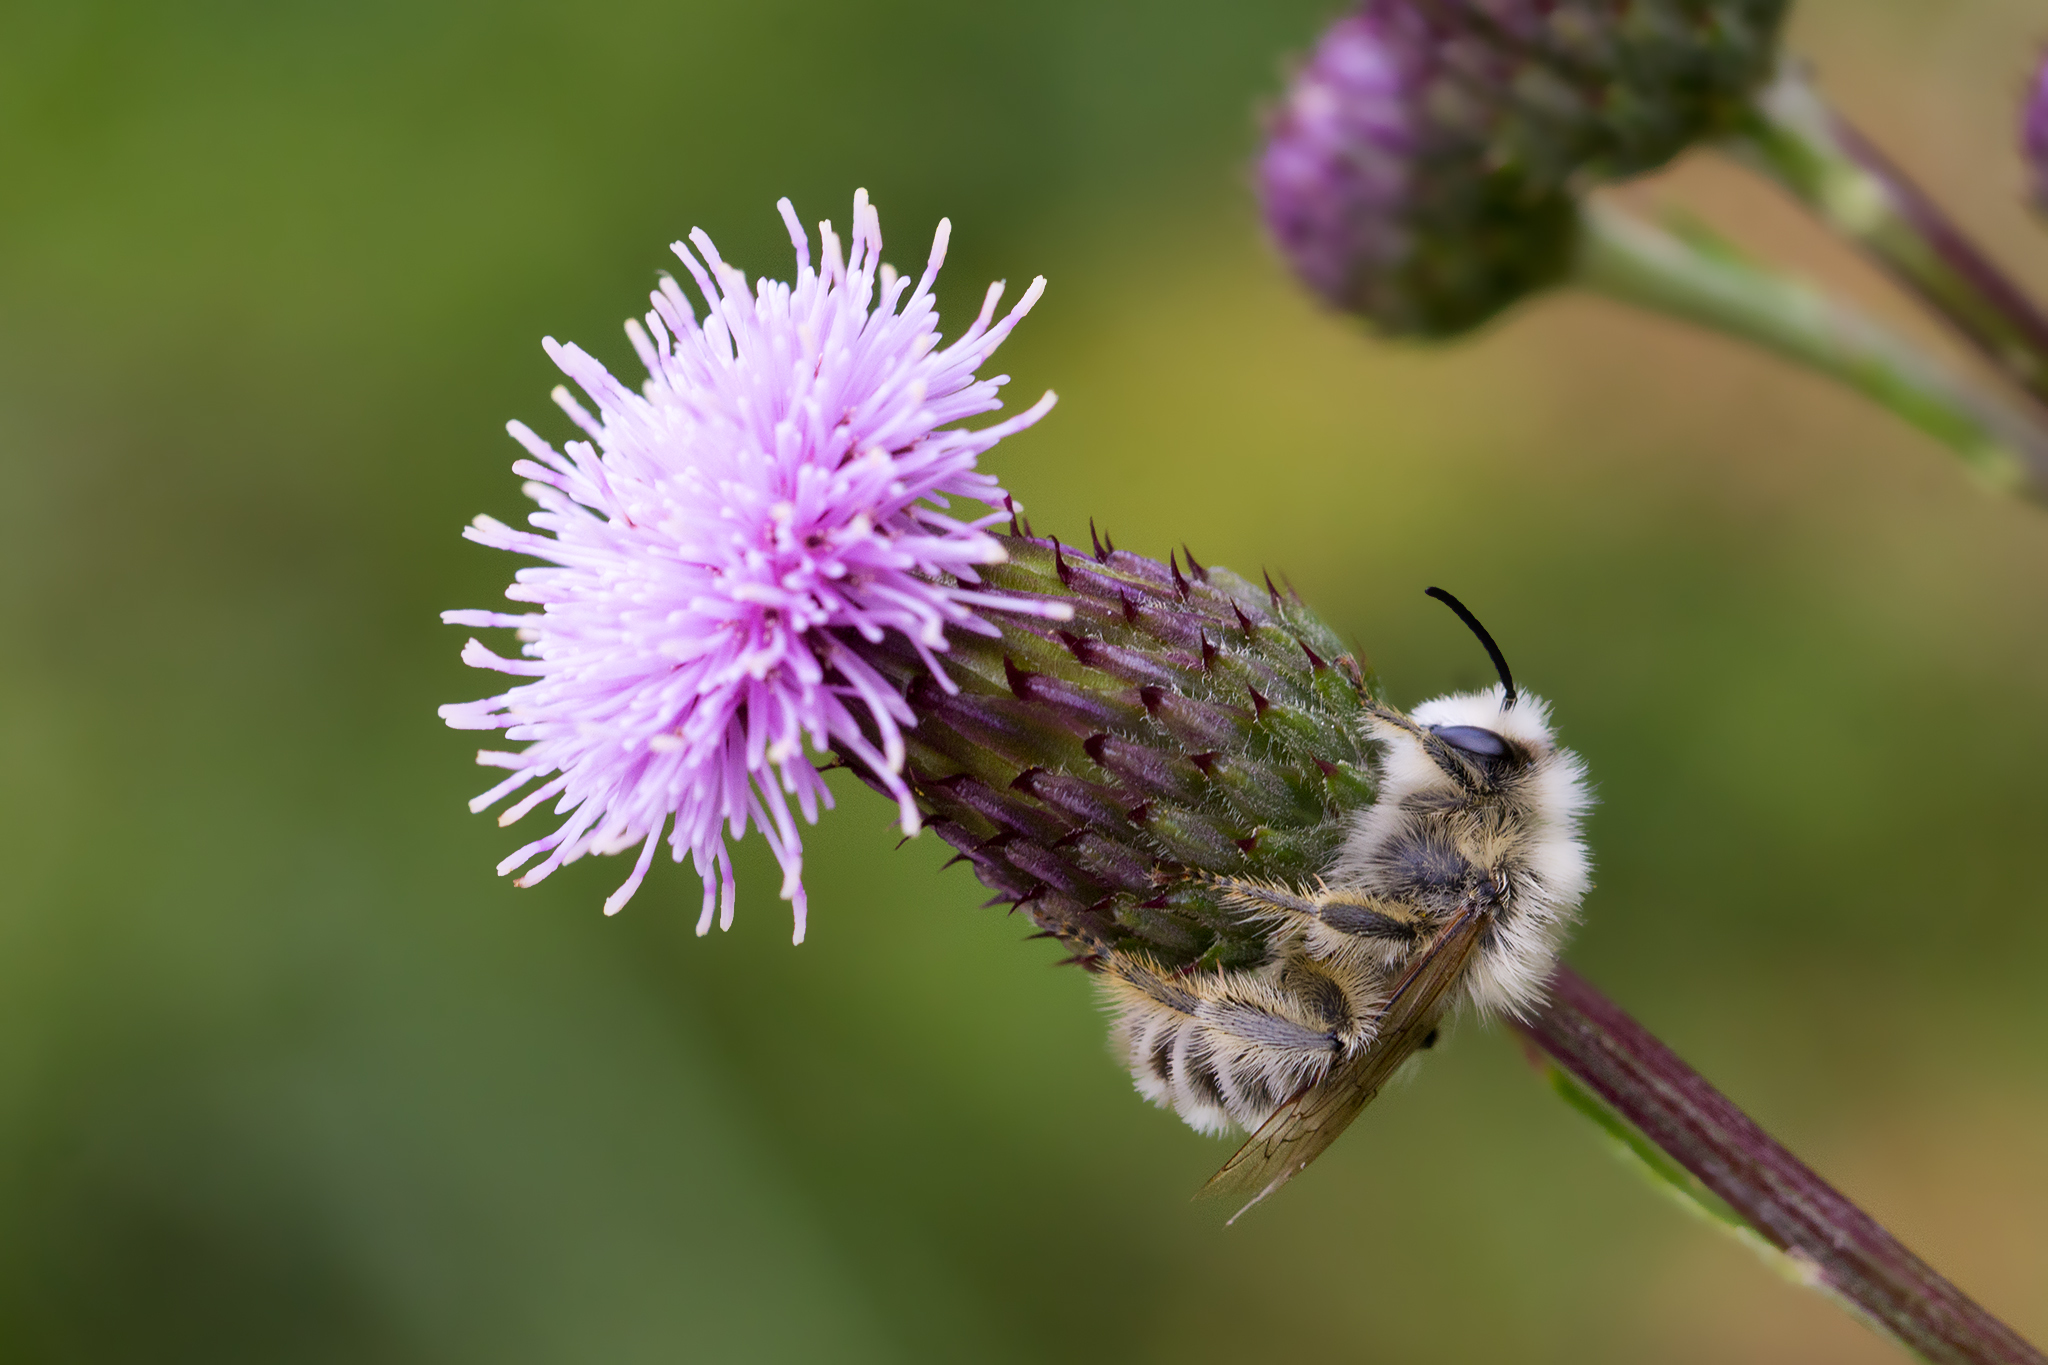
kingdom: Animalia
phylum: Arthropoda
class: Insecta
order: Hymenoptera
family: Melittidae
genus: Dasypoda
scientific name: Dasypoda hirtipes
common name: Pantaloon bee
